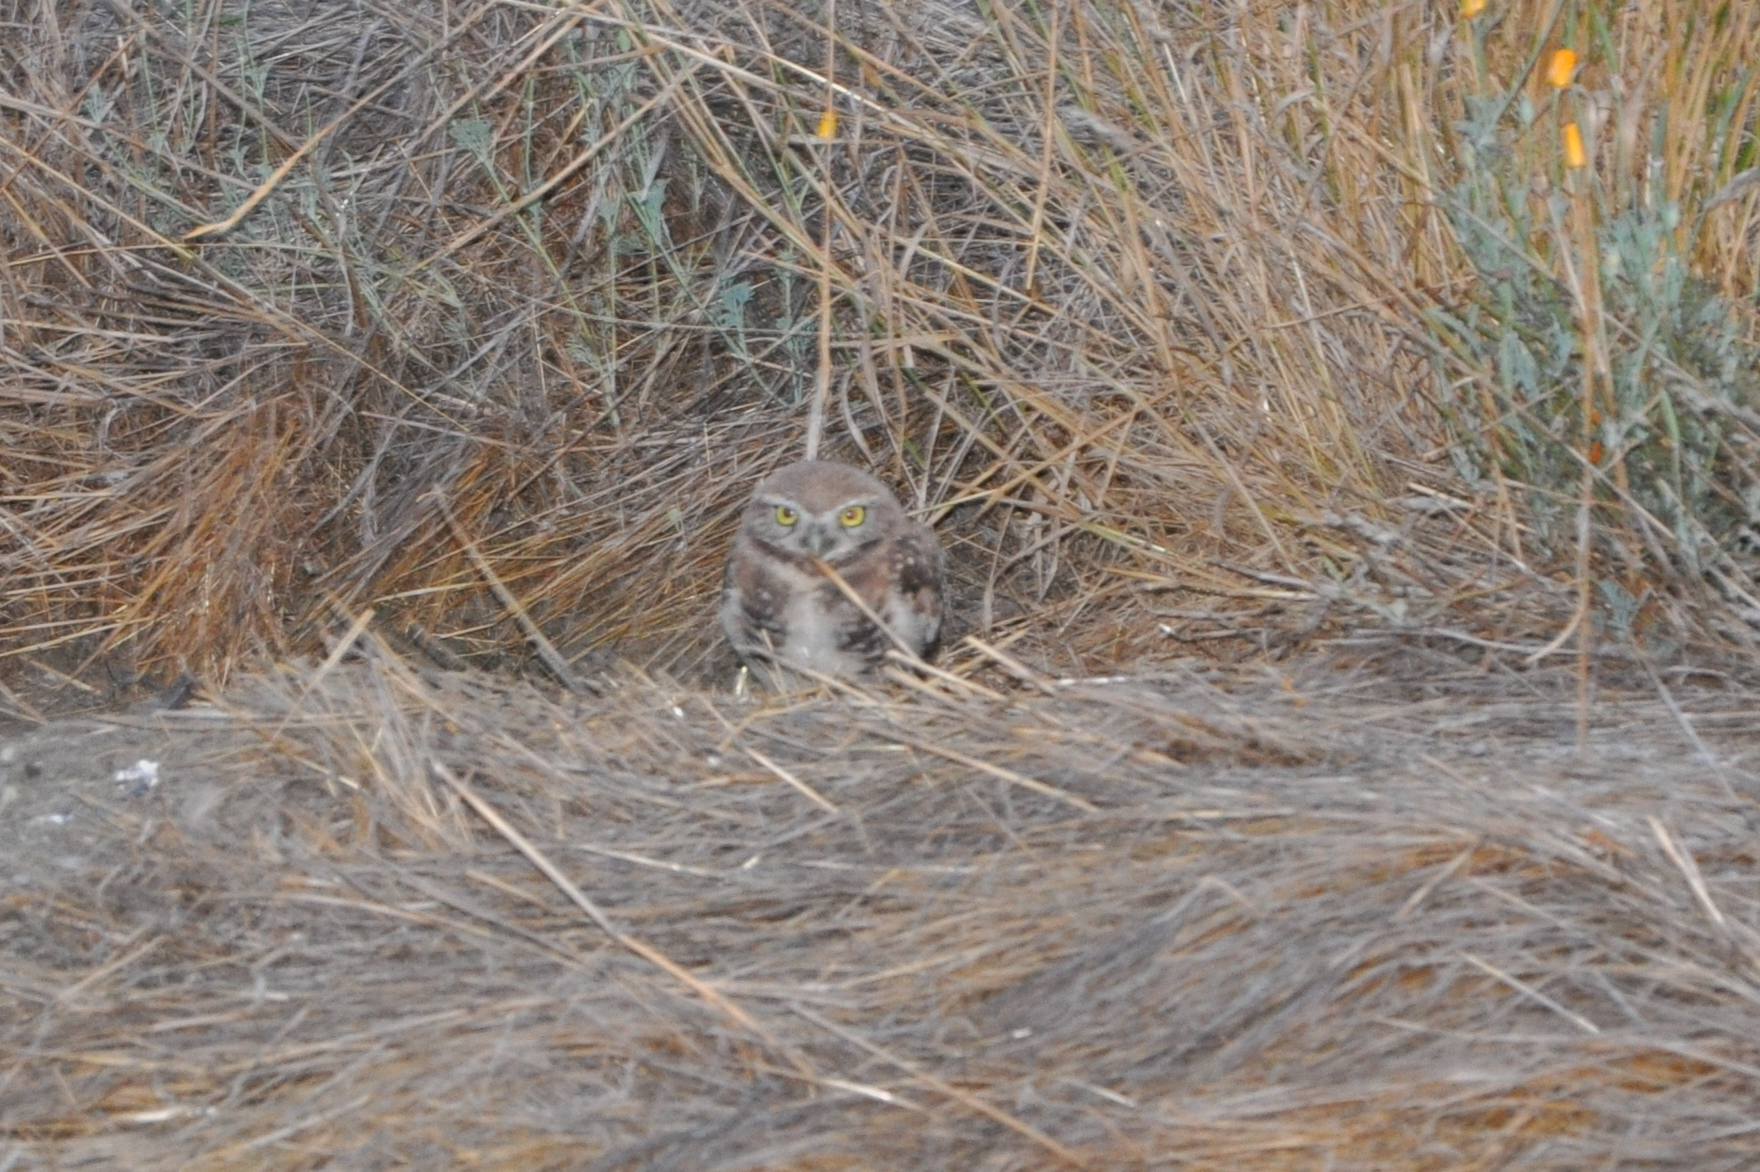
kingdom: Animalia
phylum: Chordata
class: Aves
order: Strigiformes
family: Strigidae
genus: Athene
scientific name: Athene cunicularia
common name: Burrowing owl
